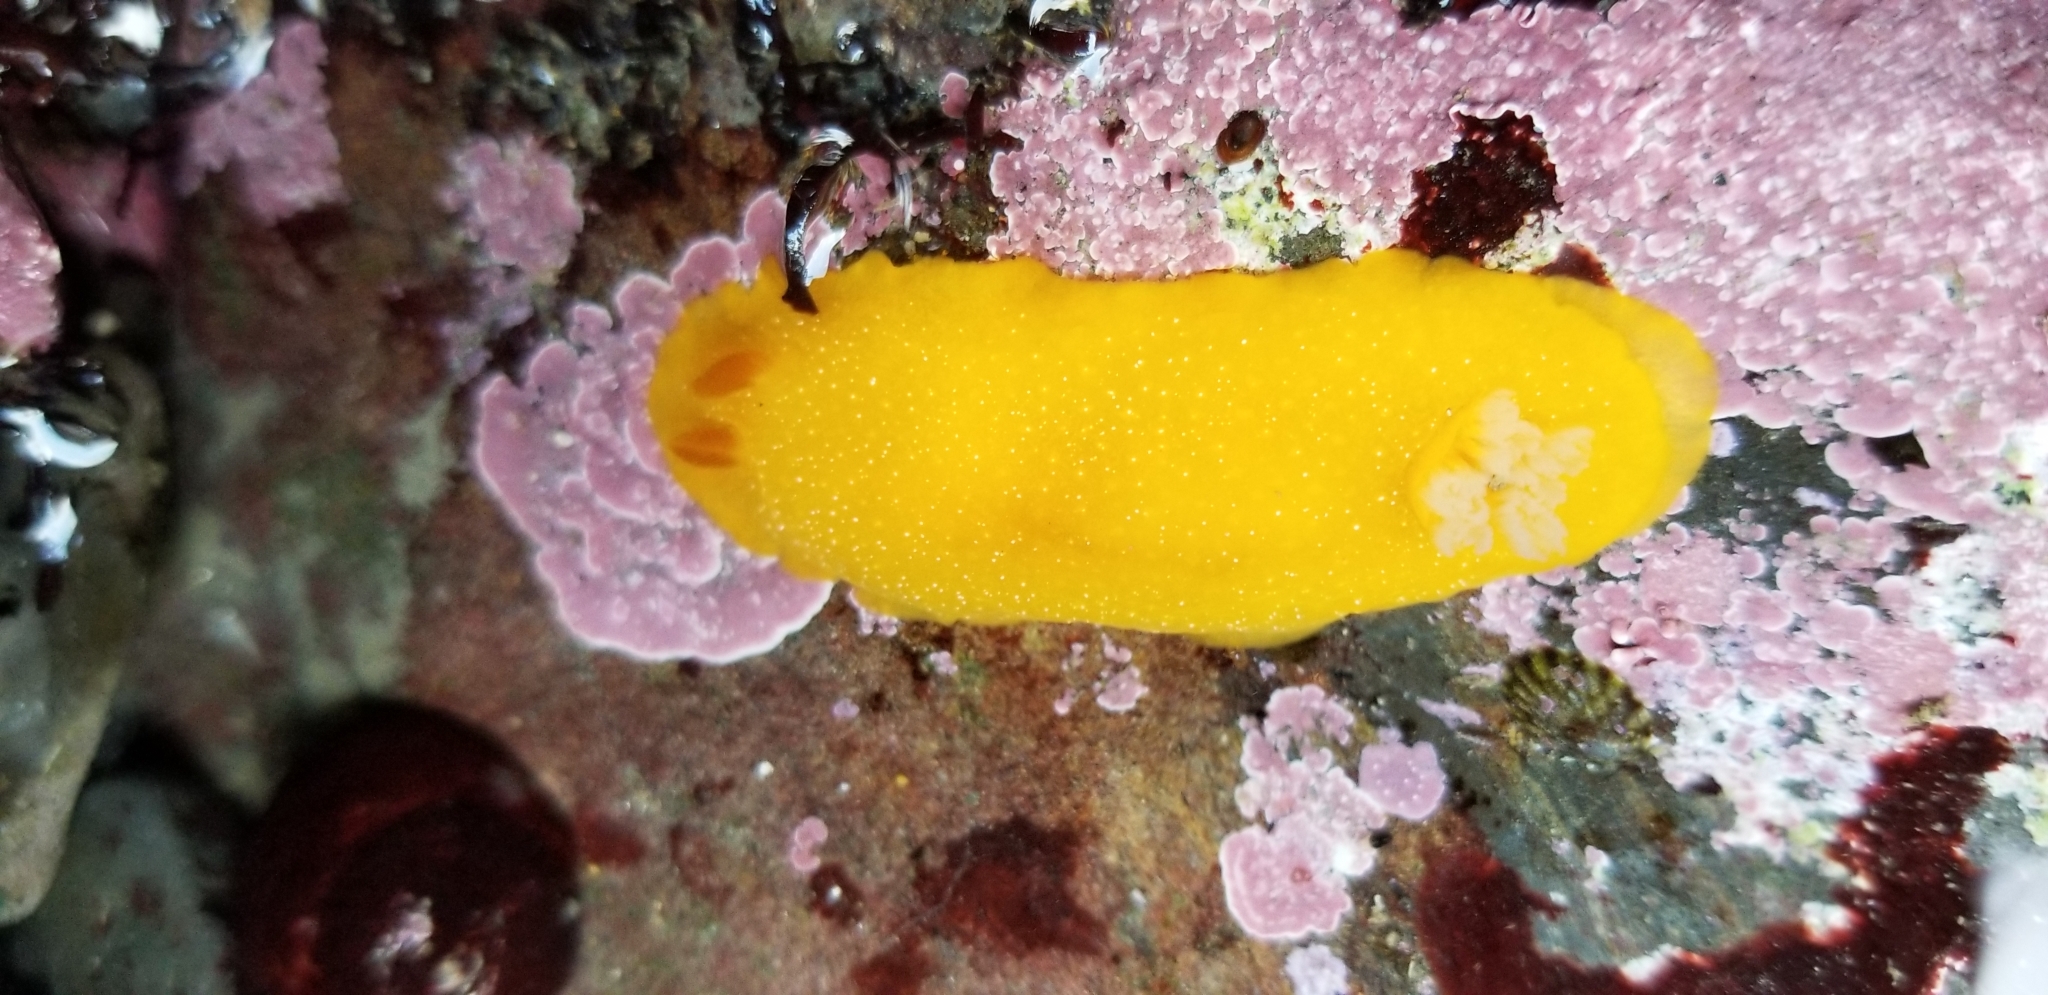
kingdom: Animalia
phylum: Mollusca
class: Gastropoda
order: Nudibranchia
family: Dendrodorididae
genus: Doriopsilla
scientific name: Doriopsilla fulva
